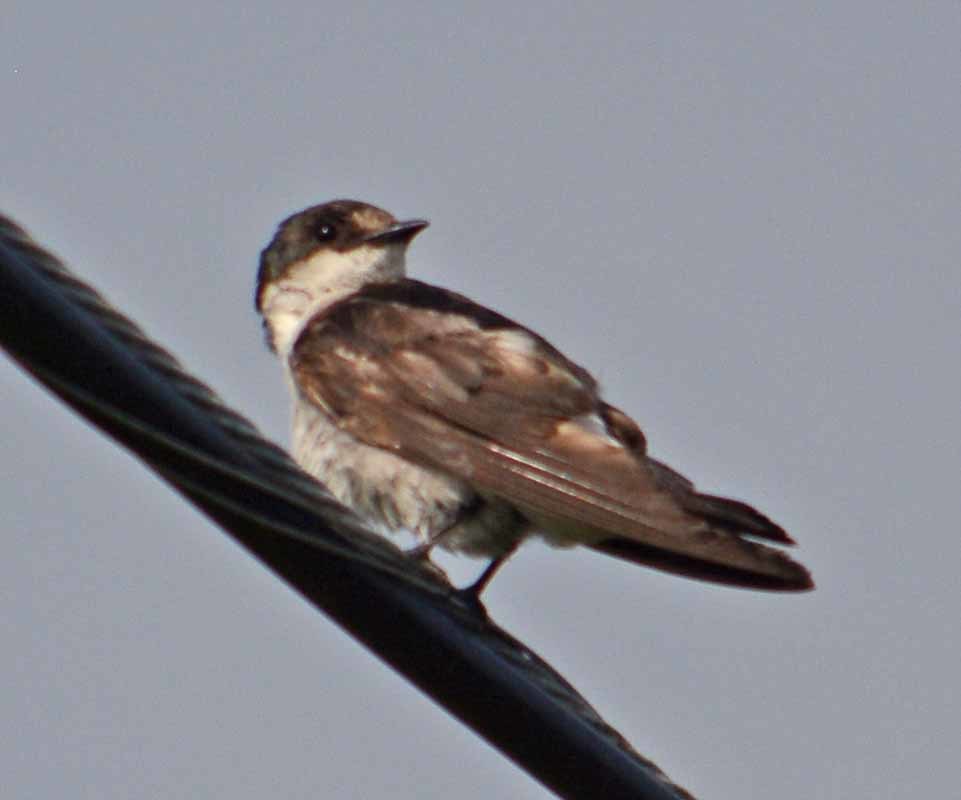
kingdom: Animalia
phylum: Chordata
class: Aves
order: Passeriformes
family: Hirundinidae
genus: Tachycineta
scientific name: Tachycineta albilinea
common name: Mangrove swallow
